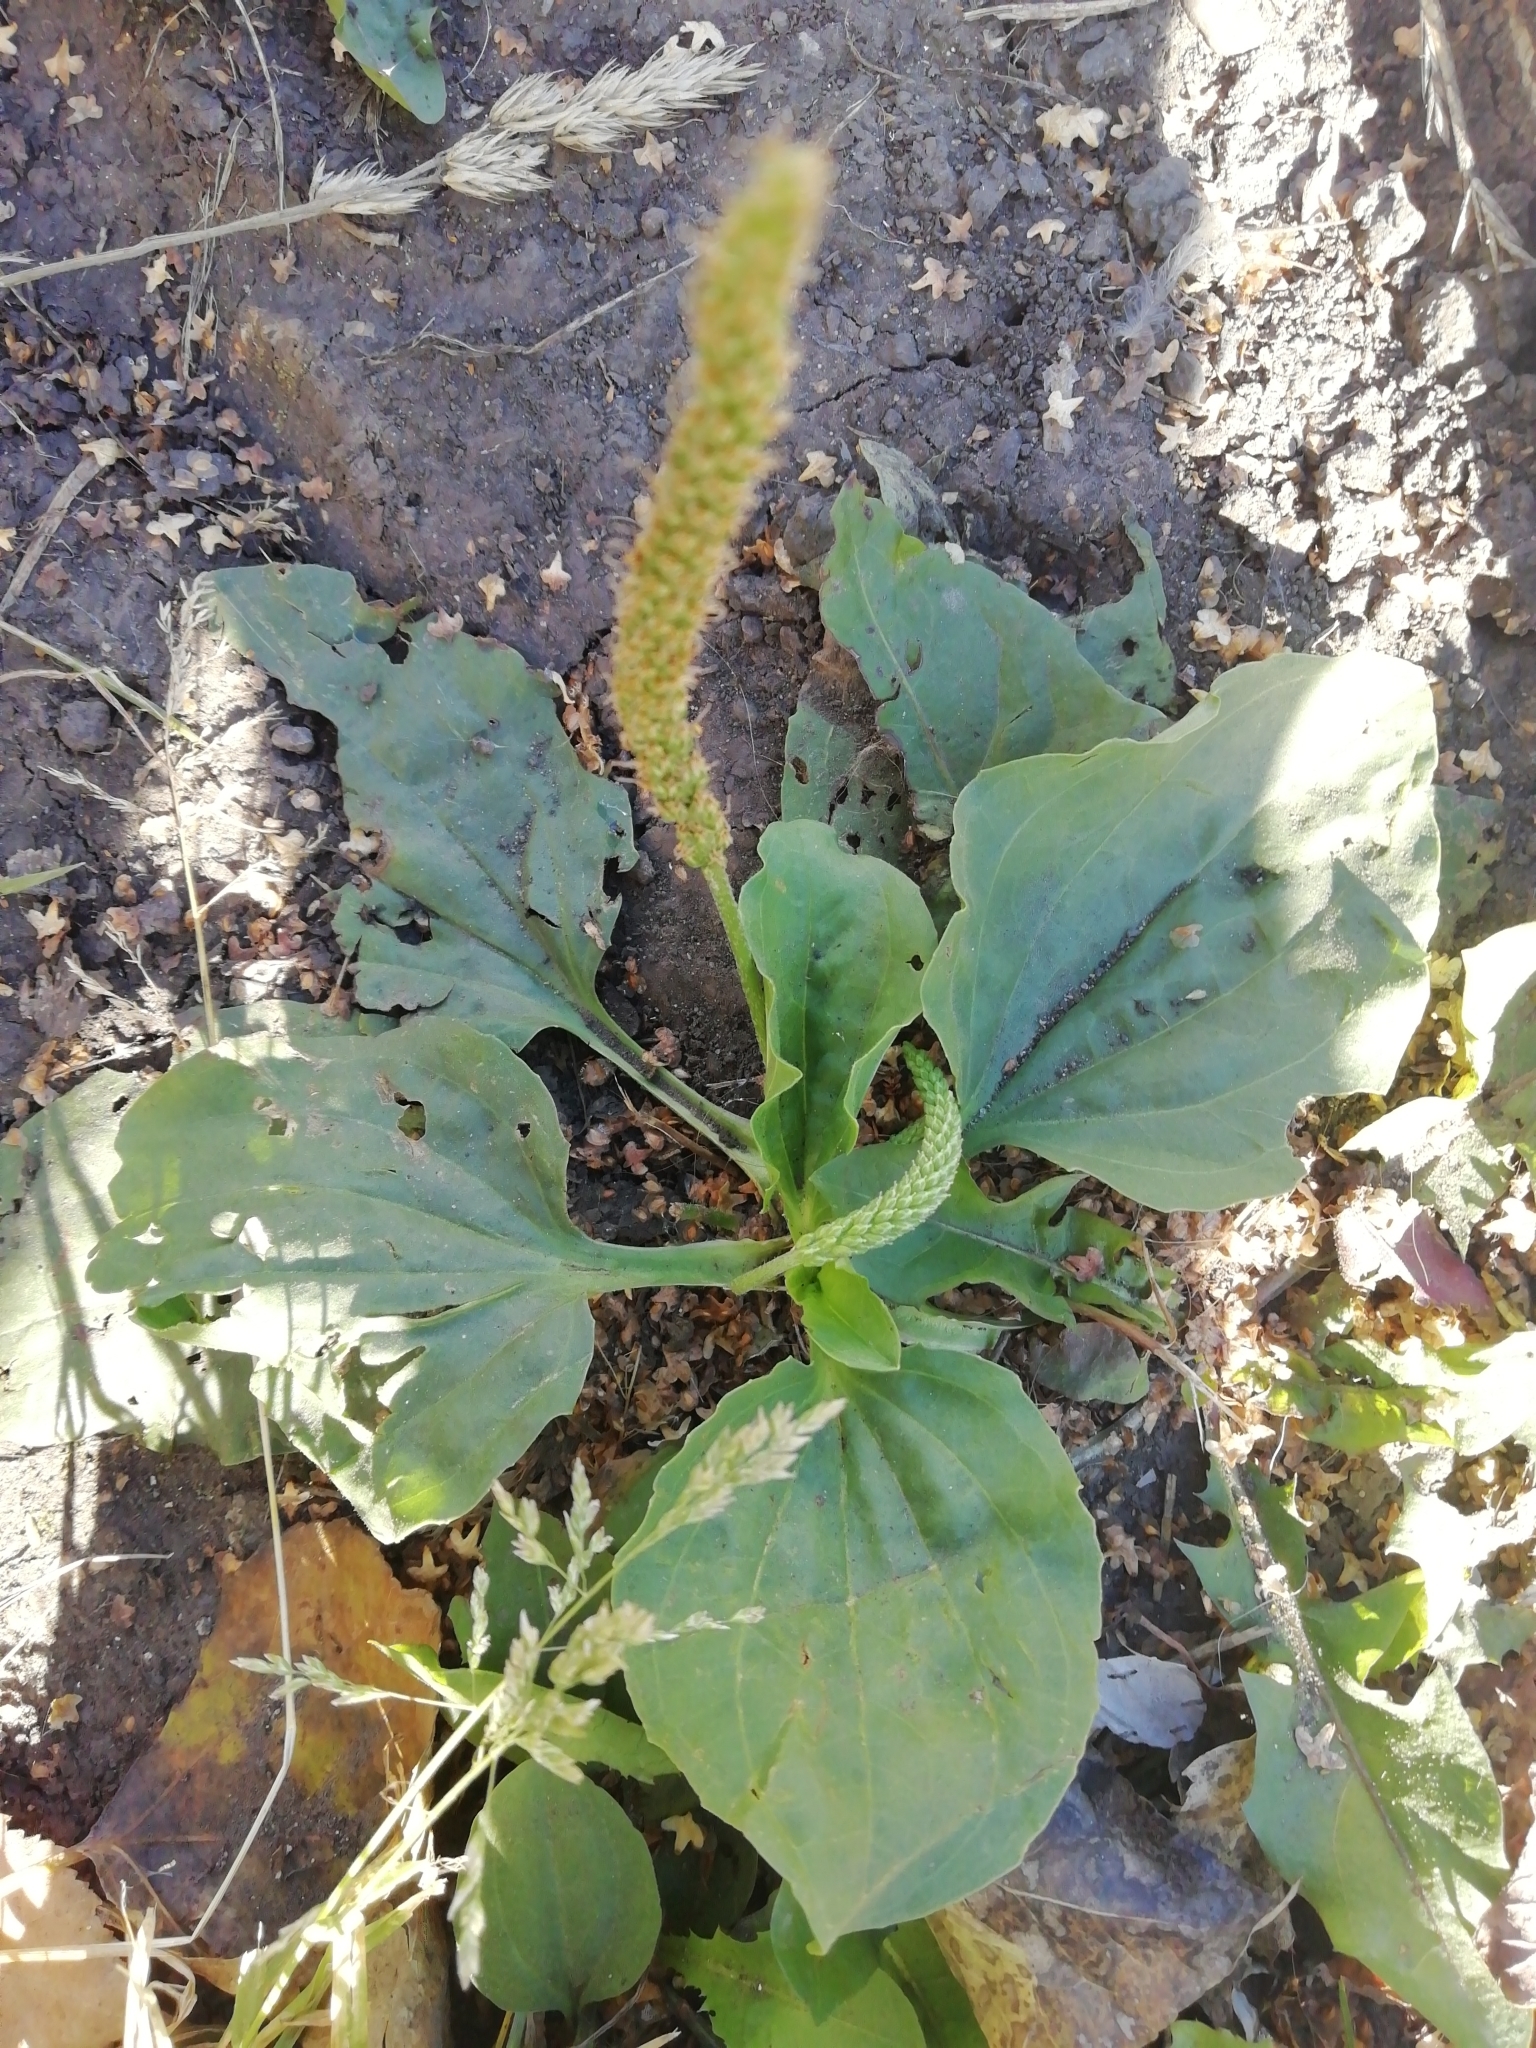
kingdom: Plantae
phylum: Tracheophyta
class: Magnoliopsida
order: Lamiales
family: Plantaginaceae
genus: Plantago
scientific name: Plantago major
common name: Common plantain
